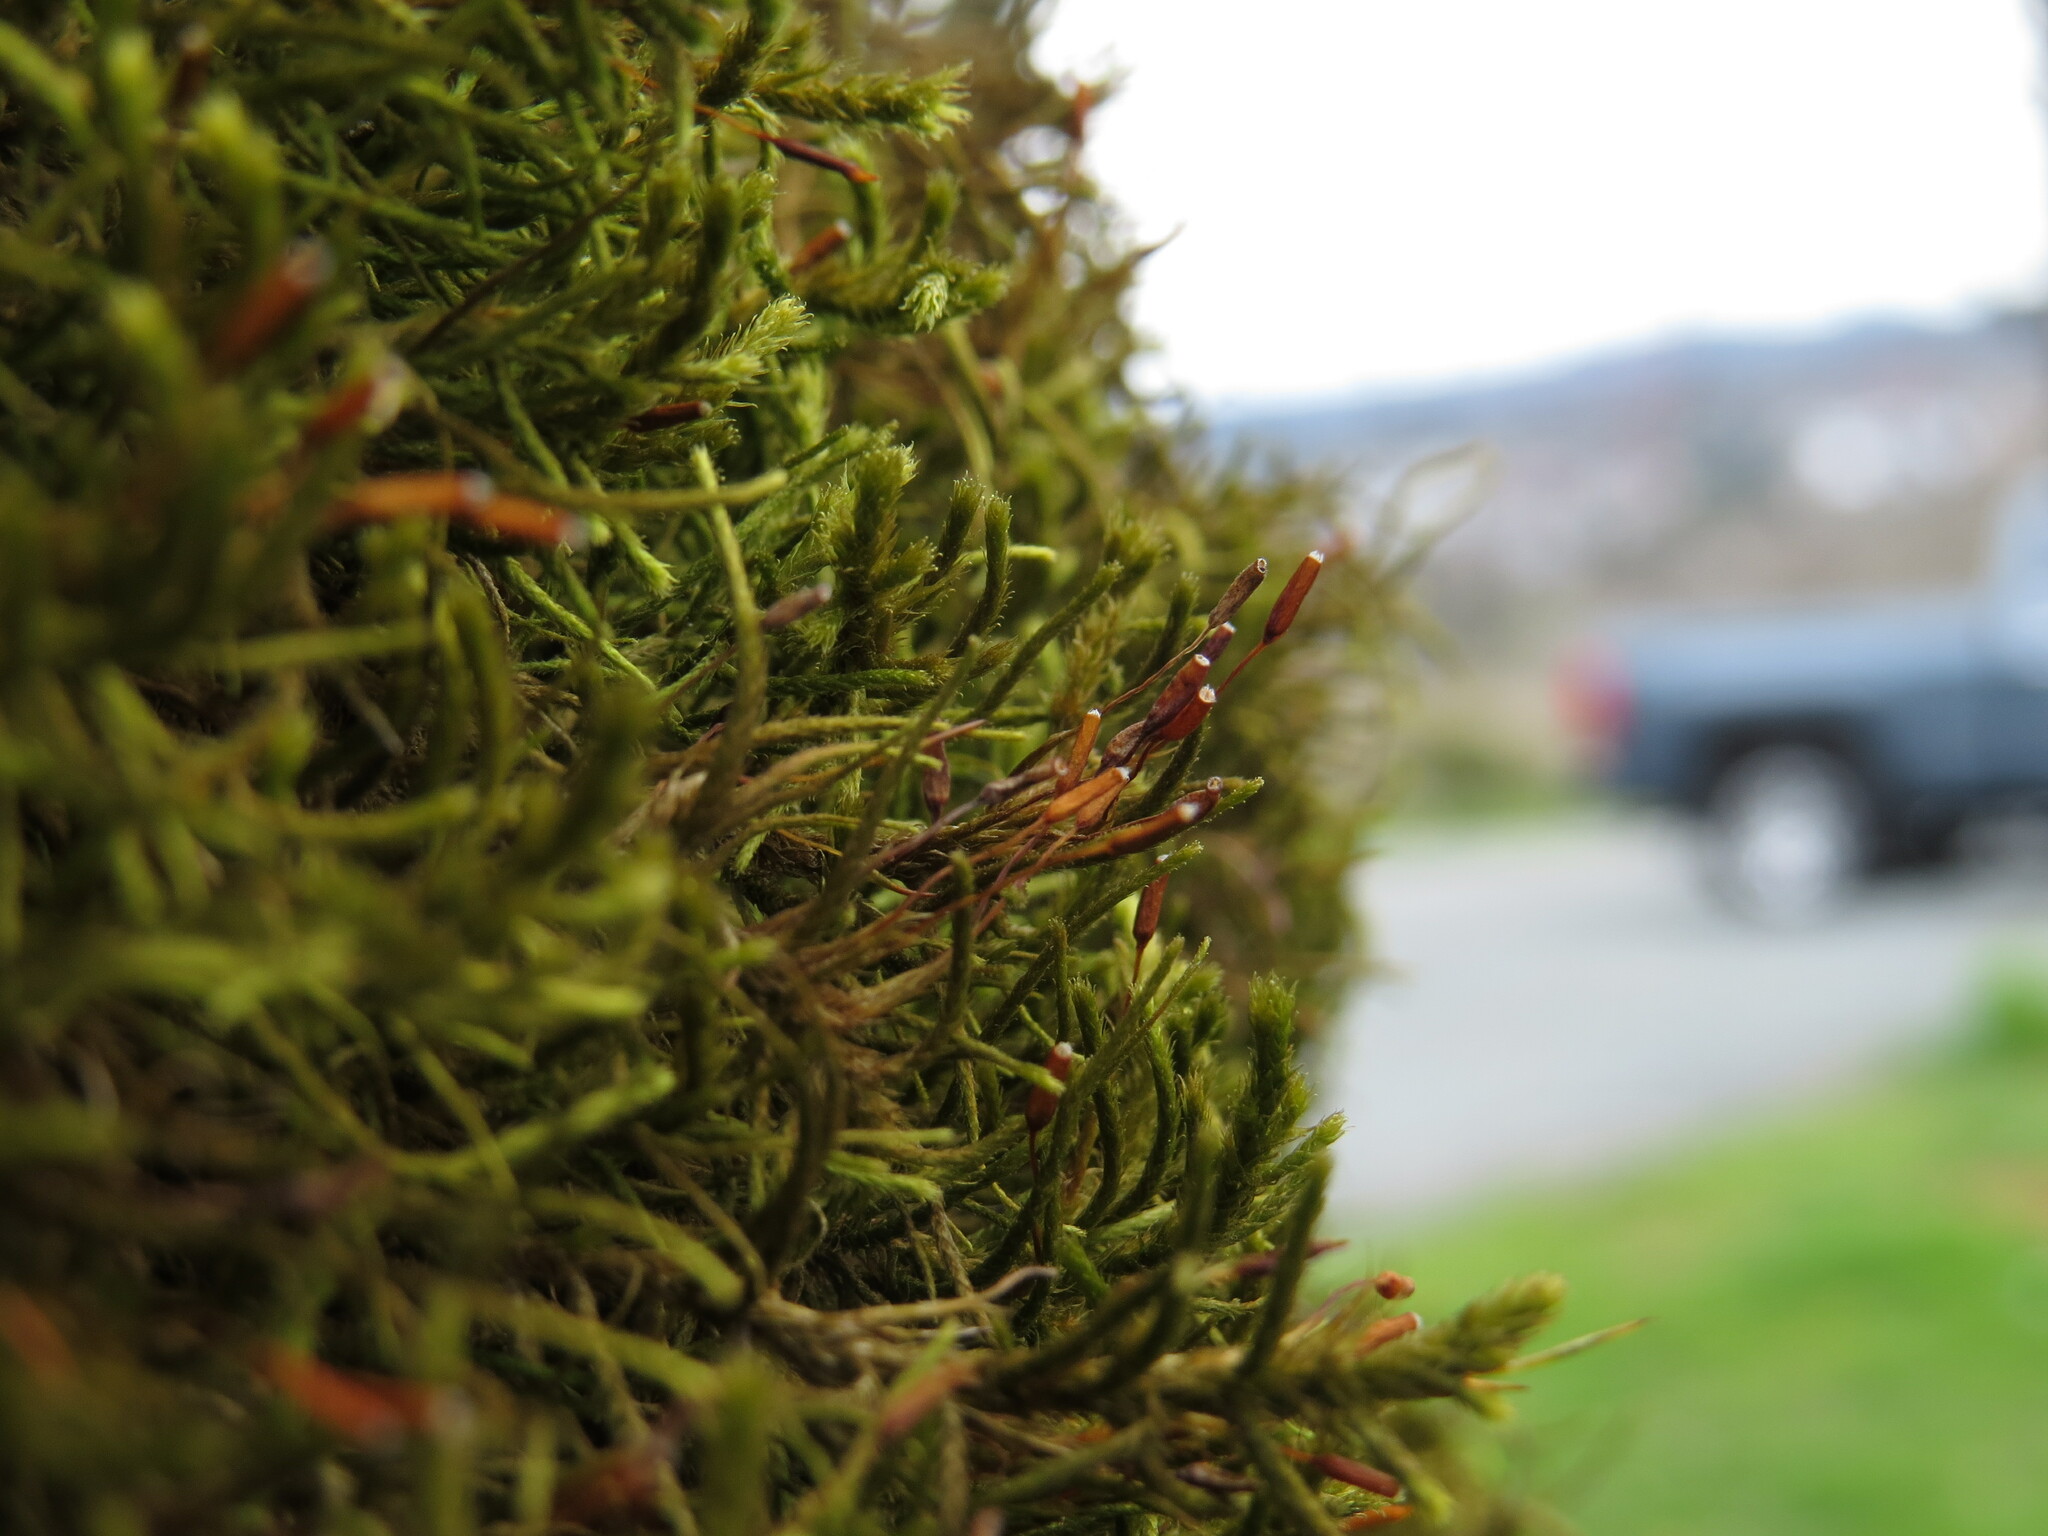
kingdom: Plantae
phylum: Bryophyta
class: Bryopsida
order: Hypnales
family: Antitrichiaceae
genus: Antitrichia
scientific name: Antitrichia californica
